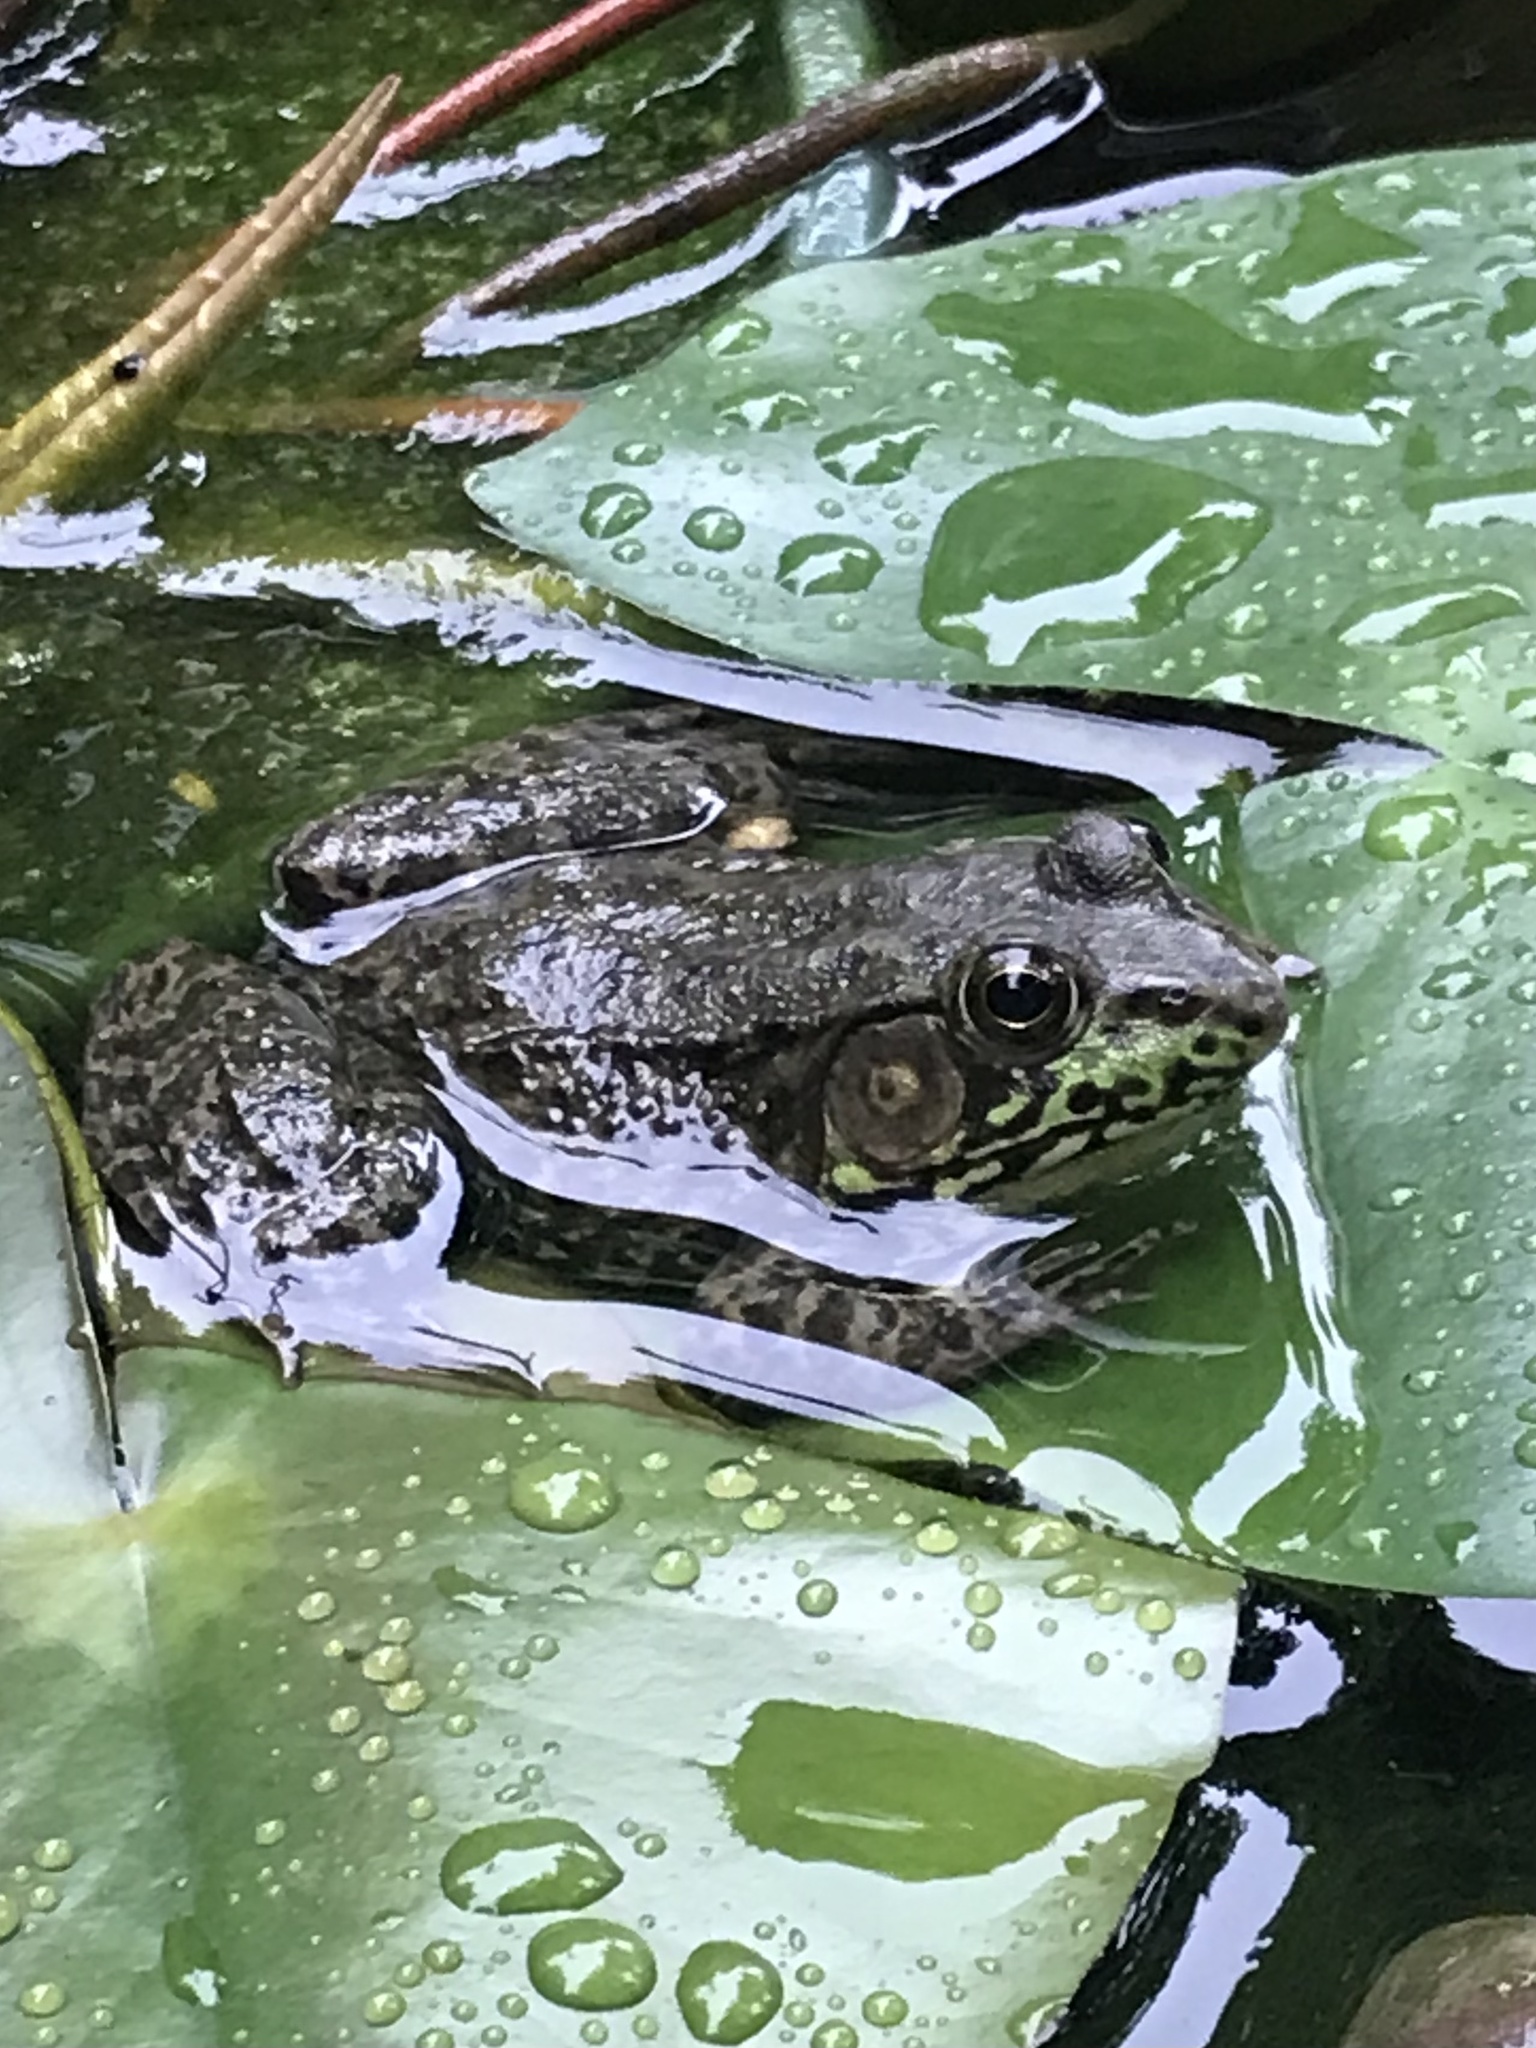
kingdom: Animalia
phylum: Chordata
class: Amphibia
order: Anura
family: Ranidae
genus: Lithobates
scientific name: Lithobates clamitans
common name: Green frog
